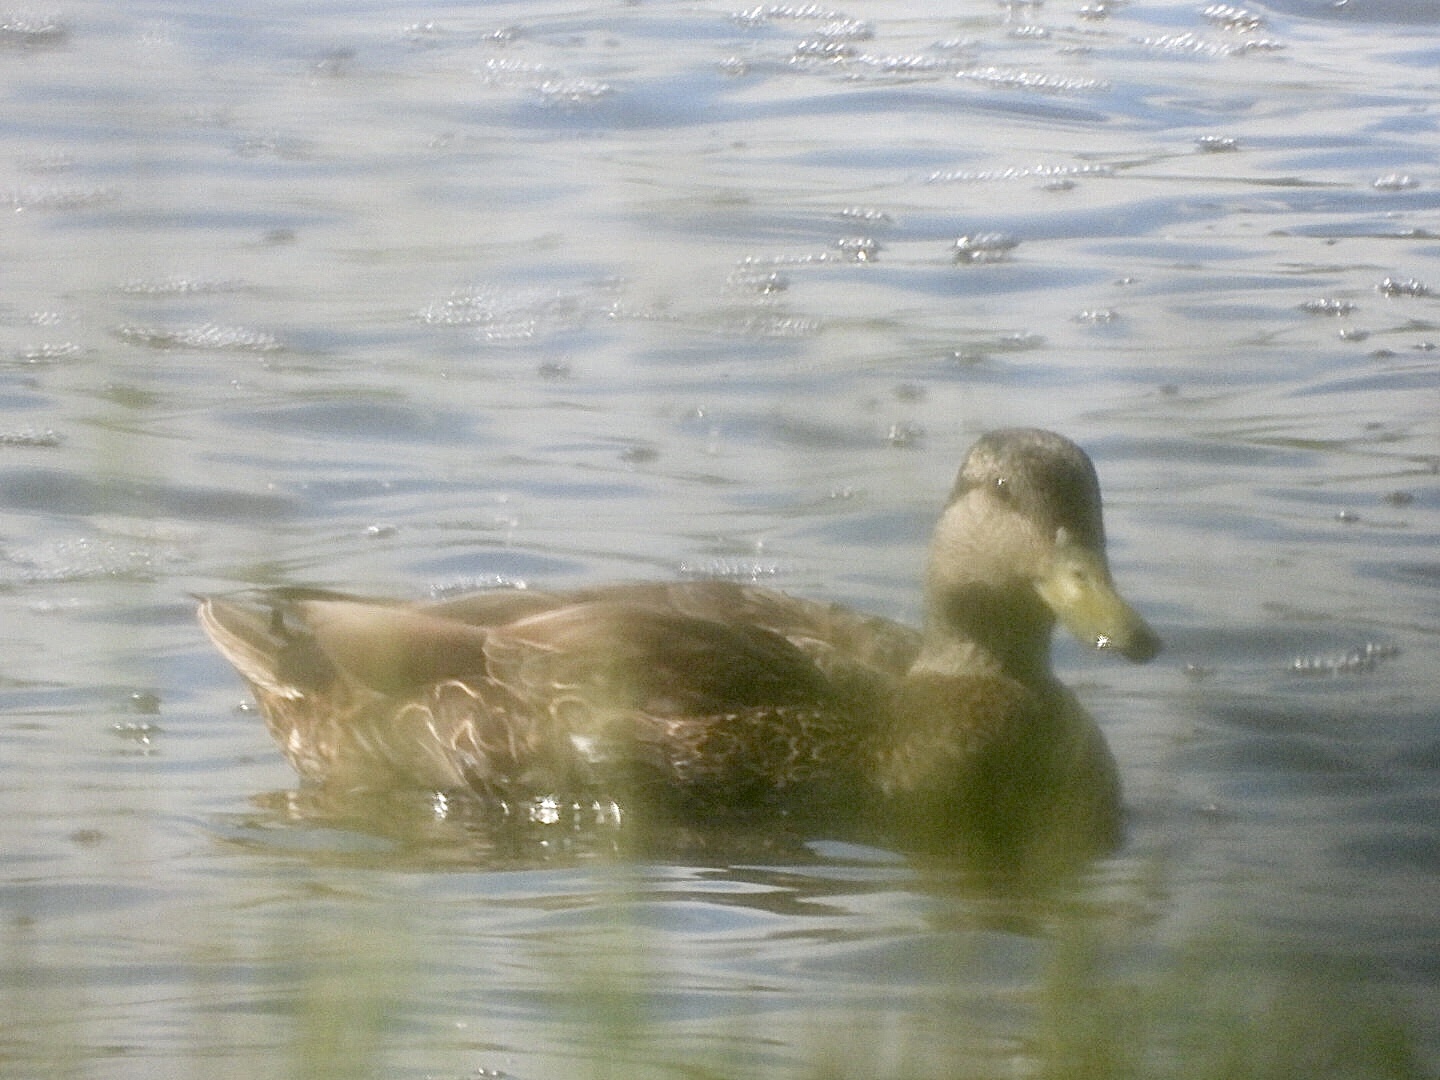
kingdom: Animalia
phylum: Chordata
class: Aves
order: Anseriformes
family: Anatidae
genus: Anas
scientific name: Anas rubripes
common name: American black duck
